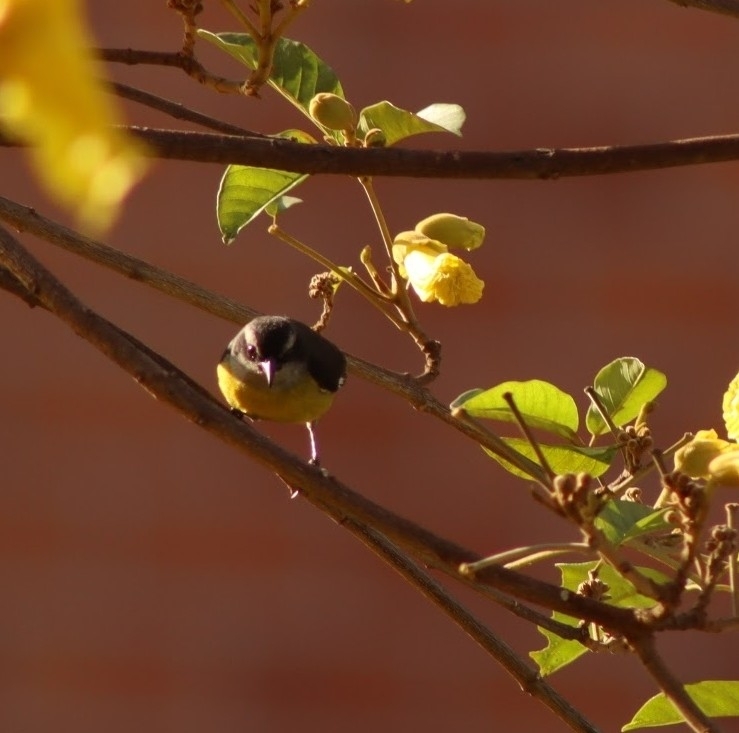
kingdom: Animalia
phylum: Chordata
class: Aves
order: Passeriformes
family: Thraupidae
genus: Coereba
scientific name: Coereba flaveola
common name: Bananaquit
